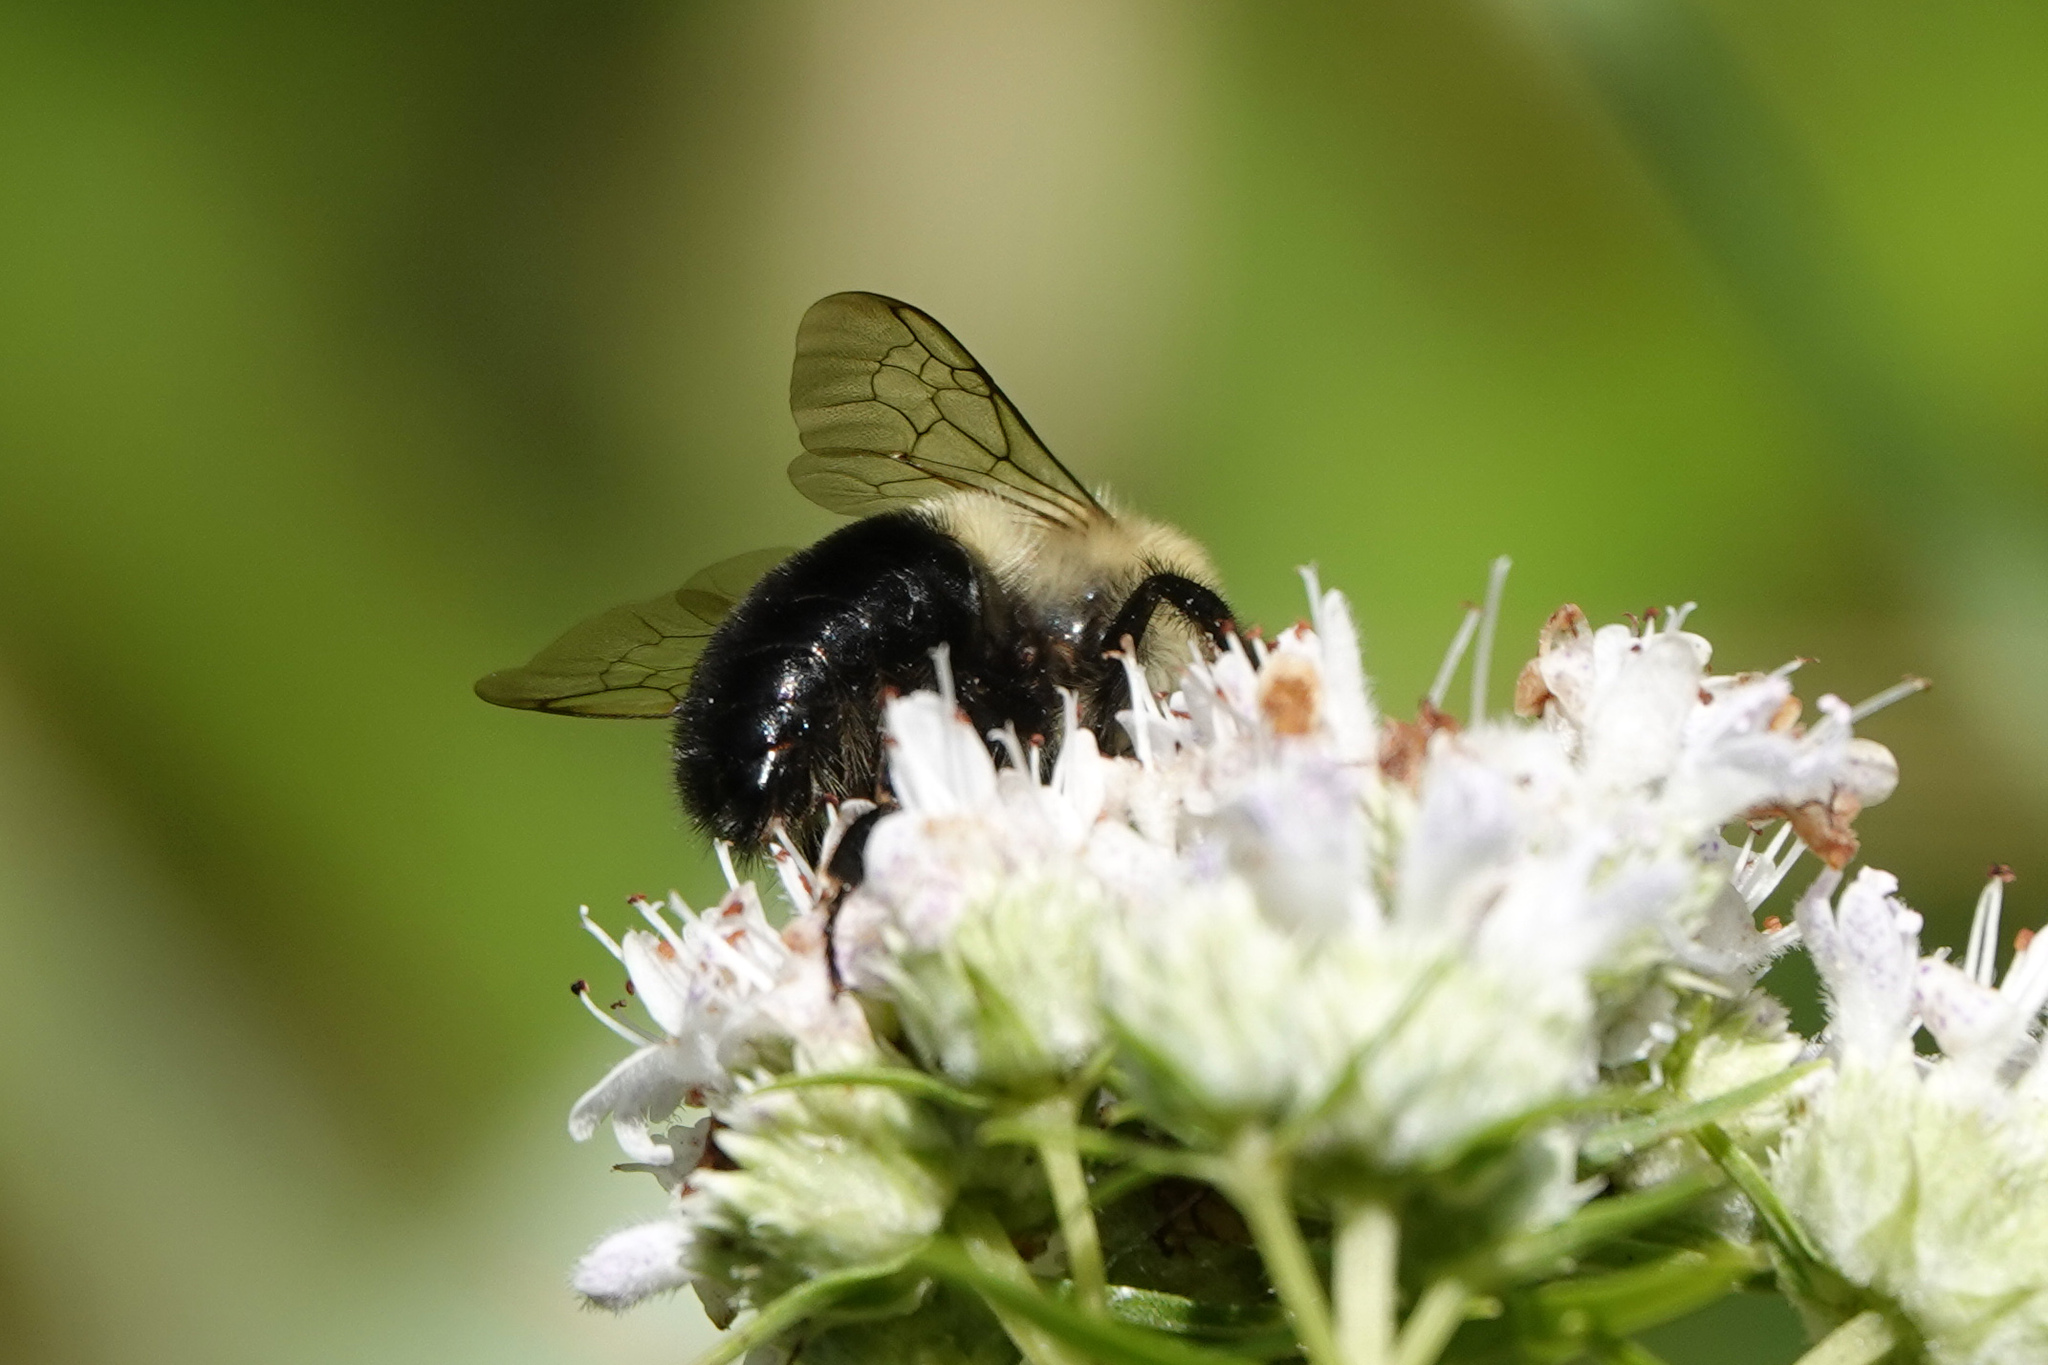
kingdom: Animalia
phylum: Arthropoda
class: Insecta
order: Hymenoptera
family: Apidae
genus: Bombus
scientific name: Bombus impatiens
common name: Common eastern bumble bee
